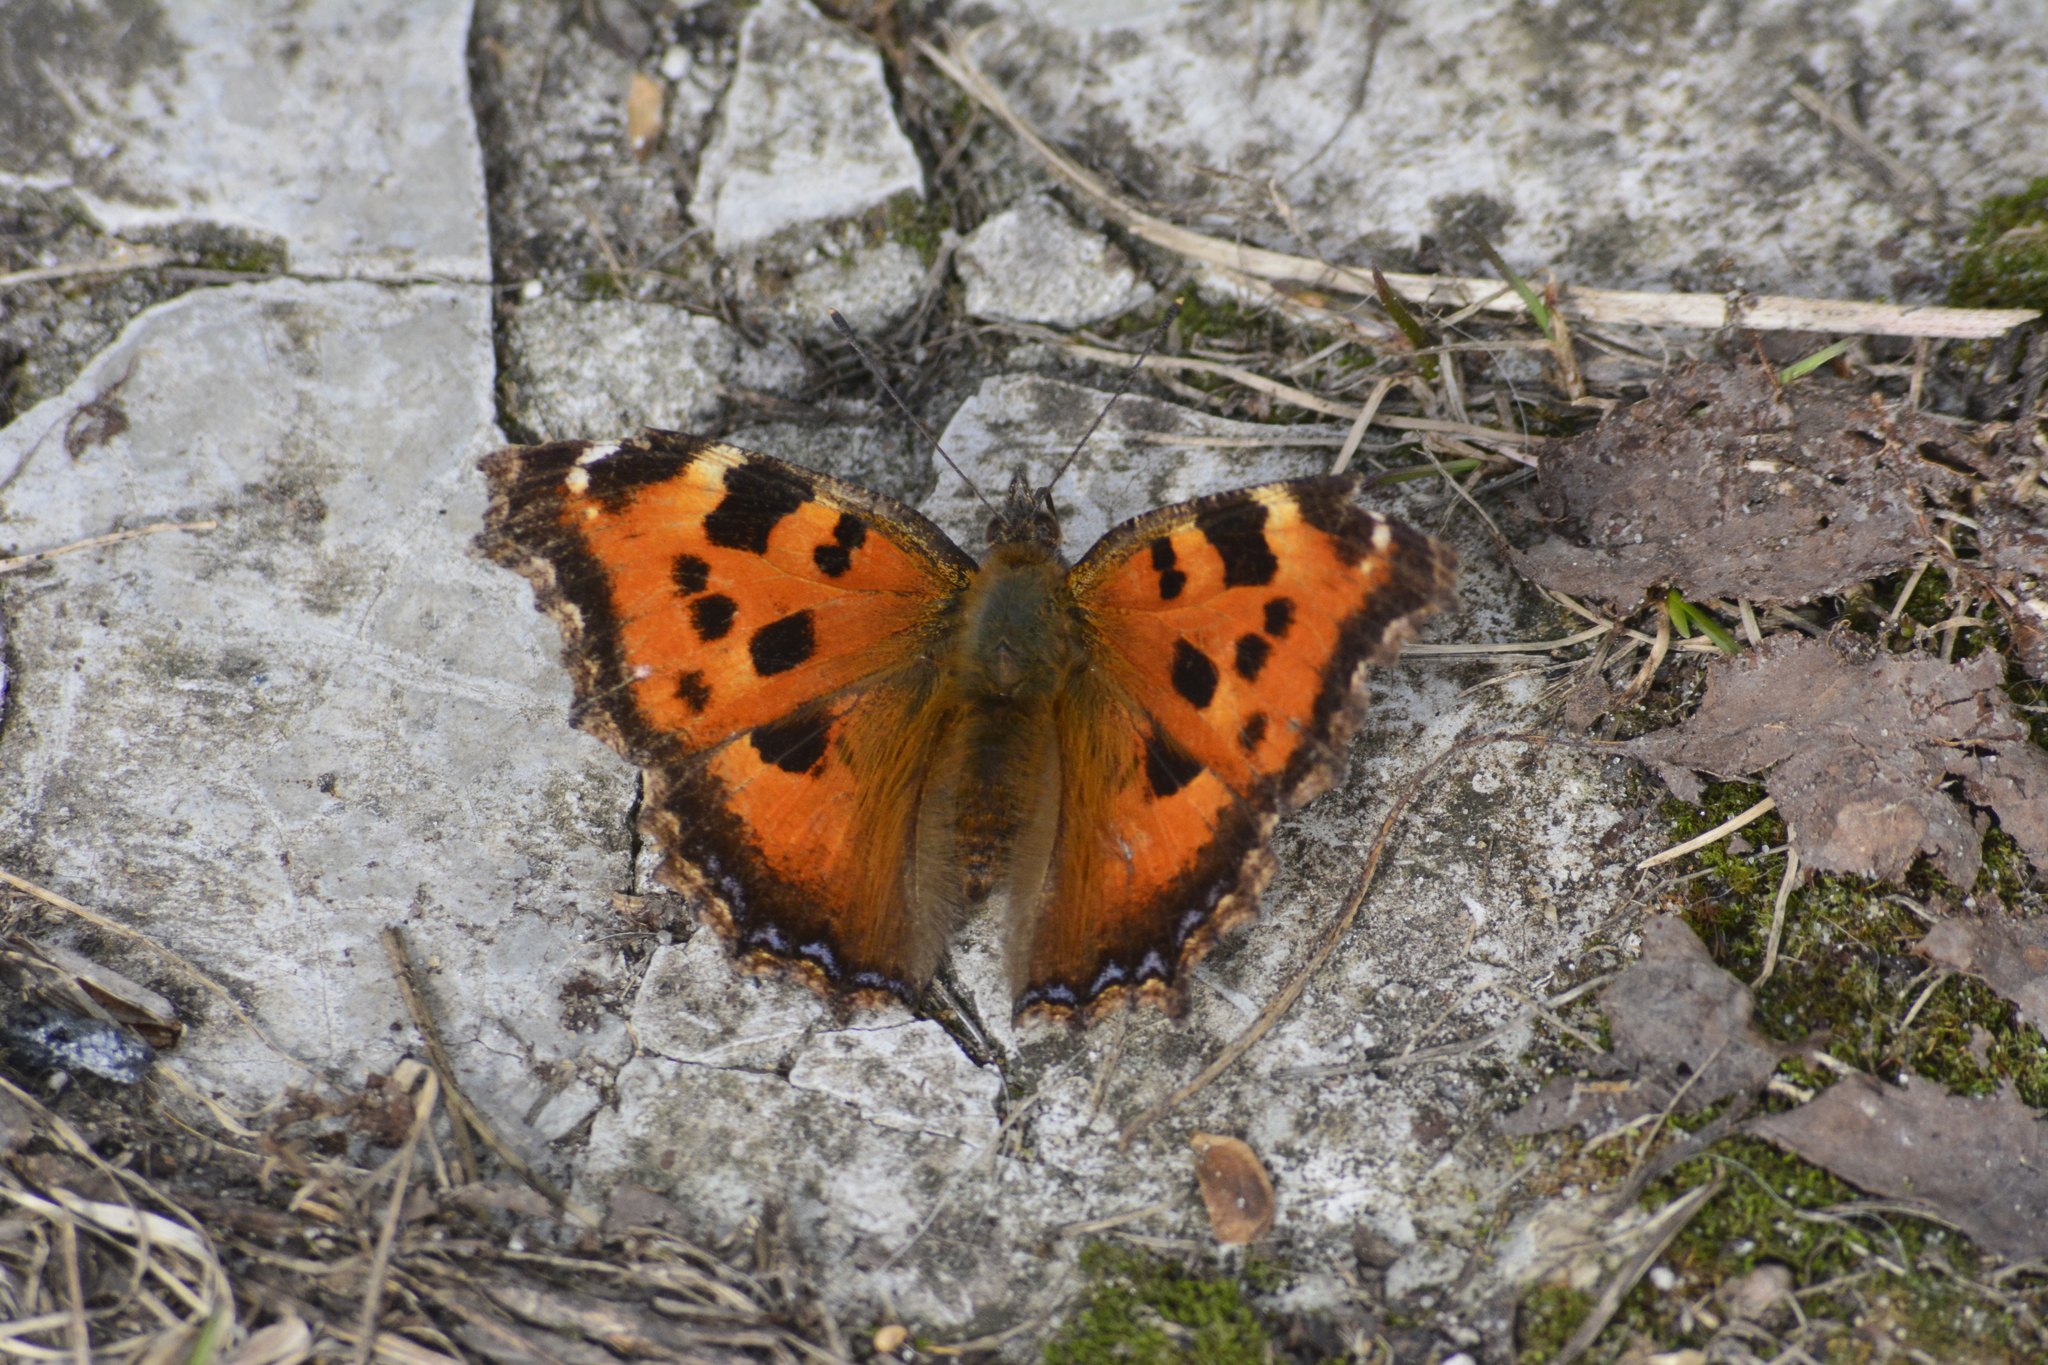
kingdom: Animalia
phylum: Arthropoda
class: Insecta
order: Lepidoptera
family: Nymphalidae
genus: Nymphalis
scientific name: Nymphalis xanthomelas
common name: Scarce tortoiseshell
